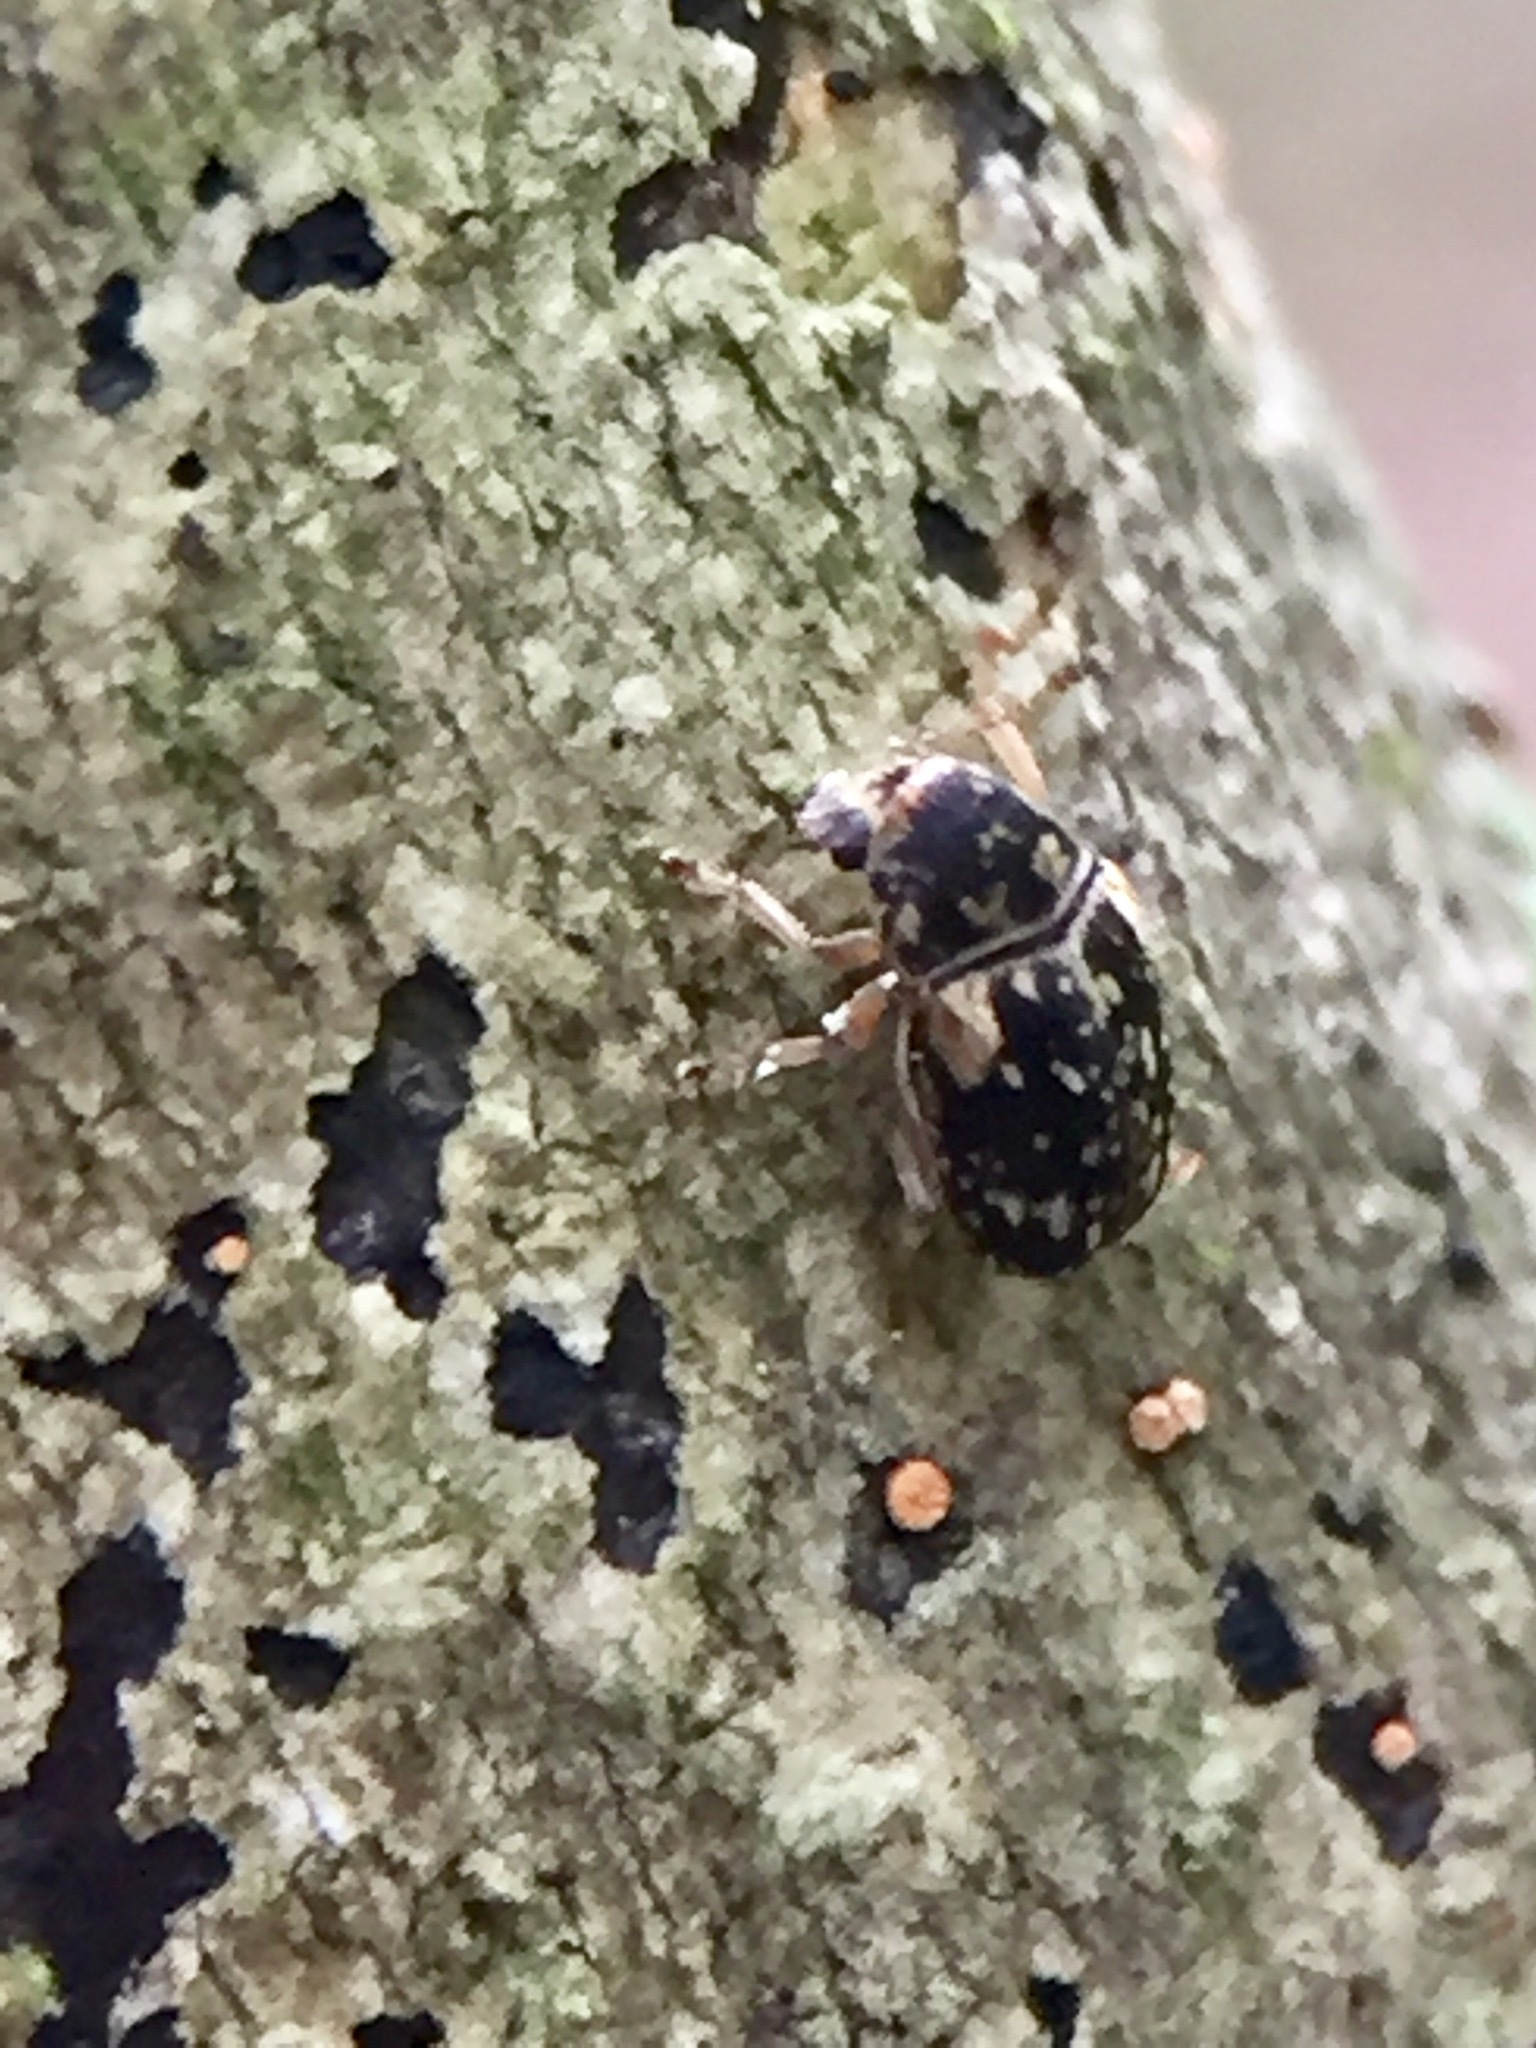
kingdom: Animalia
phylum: Arthropoda
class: Insecta
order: Coleoptera
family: Anthribidae
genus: Liromus
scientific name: Liromus
